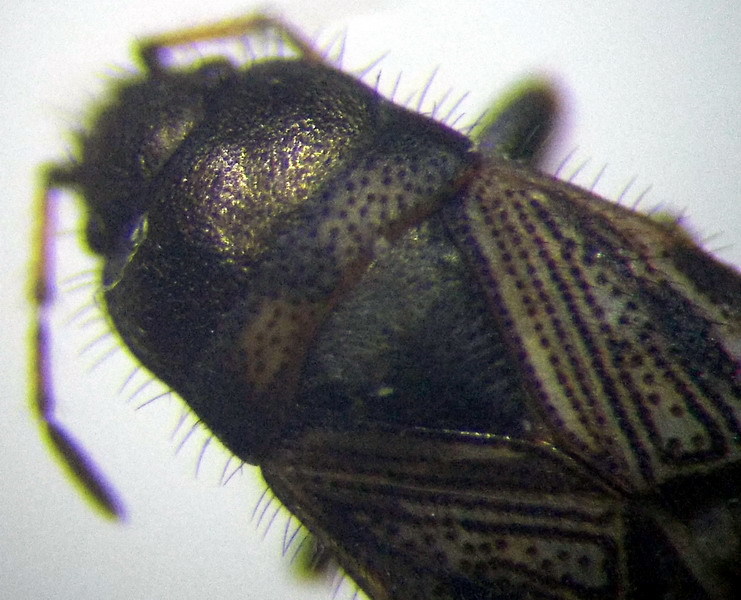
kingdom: Animalia
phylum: Arthropoda
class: Insecta
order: Hemiptera
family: Rhyparochromidae
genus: Pionosomus
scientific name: Pionosomus opacellus
